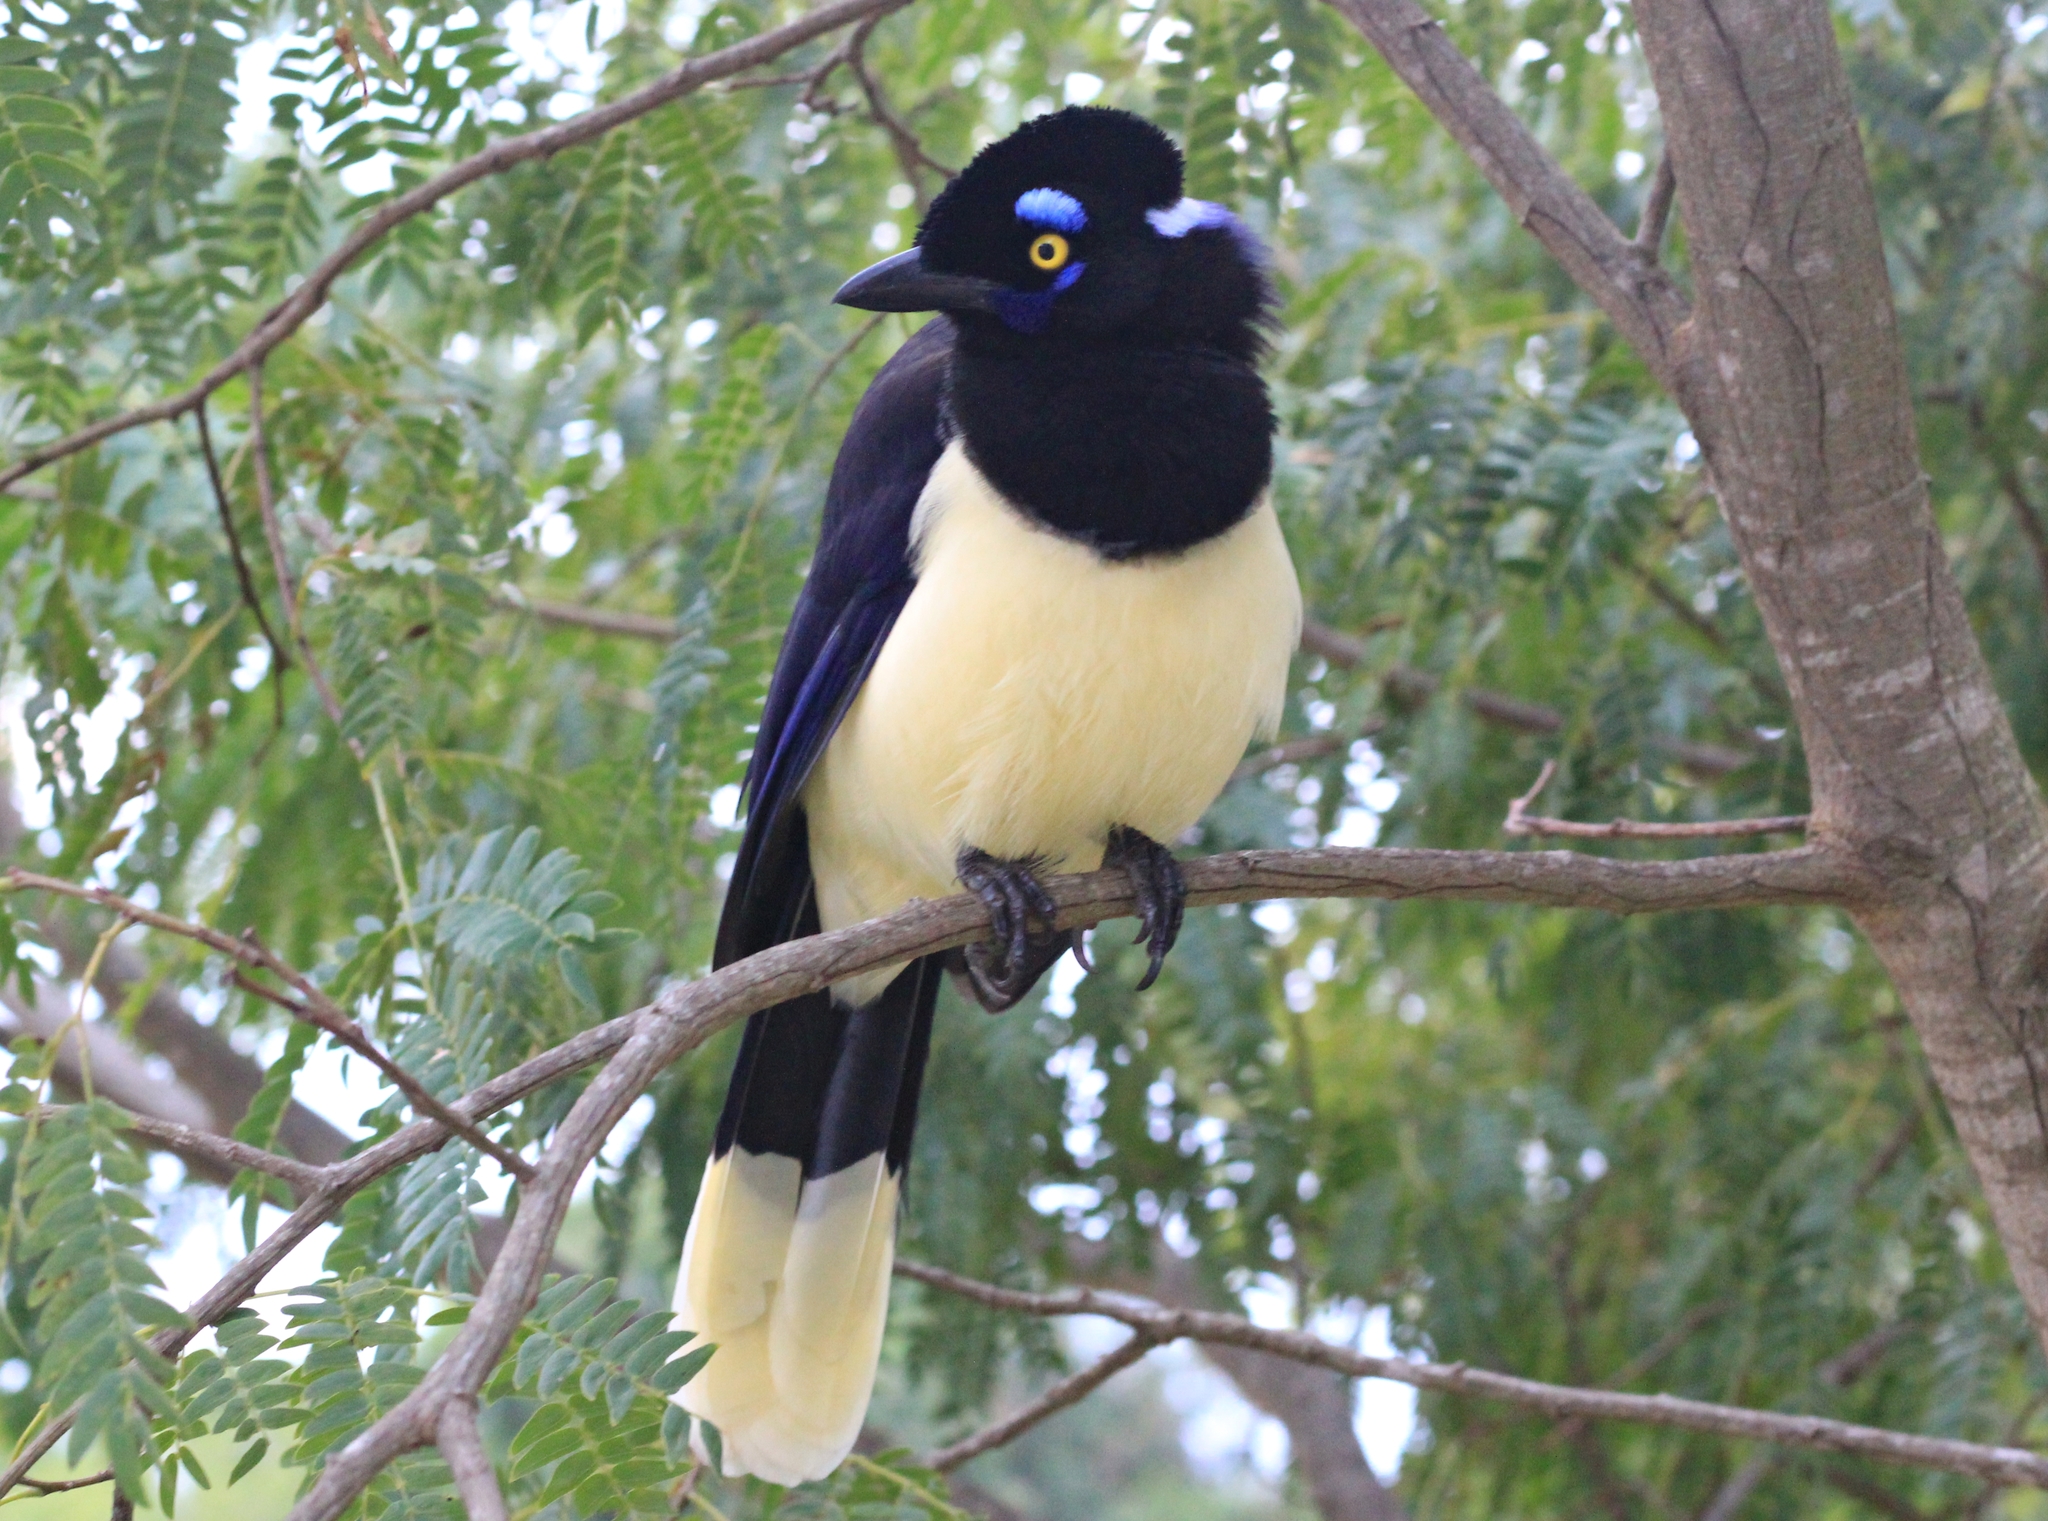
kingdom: Animalia
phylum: Chordata
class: Aves
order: Passeriformes
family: Corvidae
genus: Cyanocorax
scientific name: Cyanocorax chrysops
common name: Plush-crested jay
